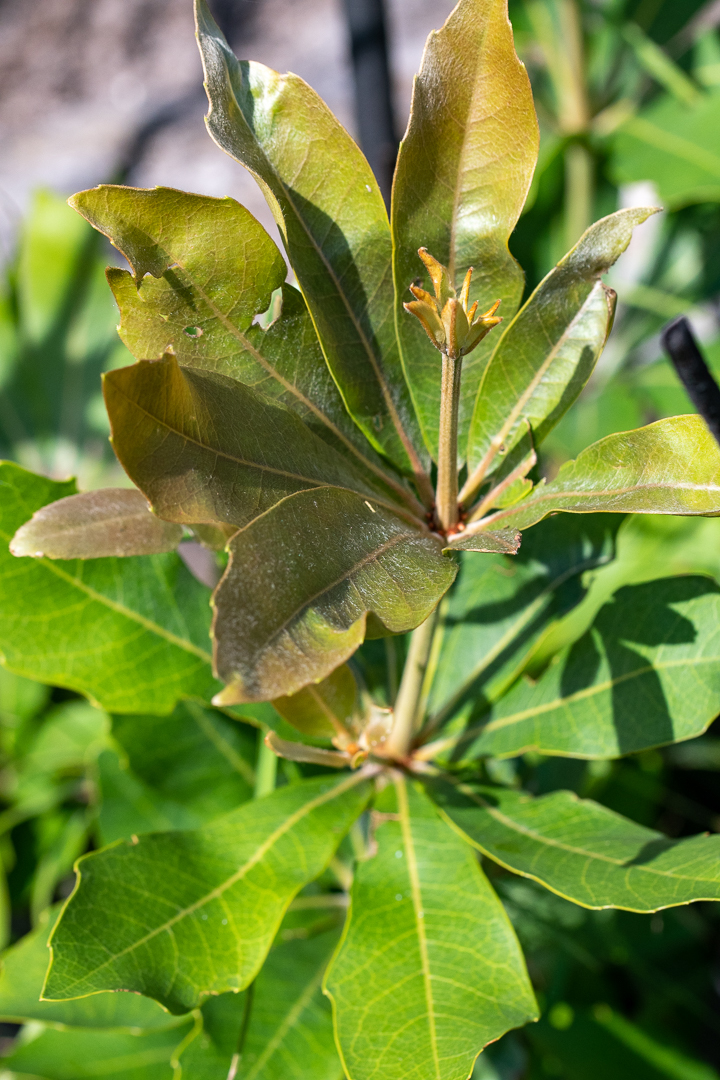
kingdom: Plantae
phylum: Tracheophyta
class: Magnoliopsida
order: Proteales
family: Proteaceae
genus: Brabejum
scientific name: Brabejum stellatifolium
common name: Wild almond
